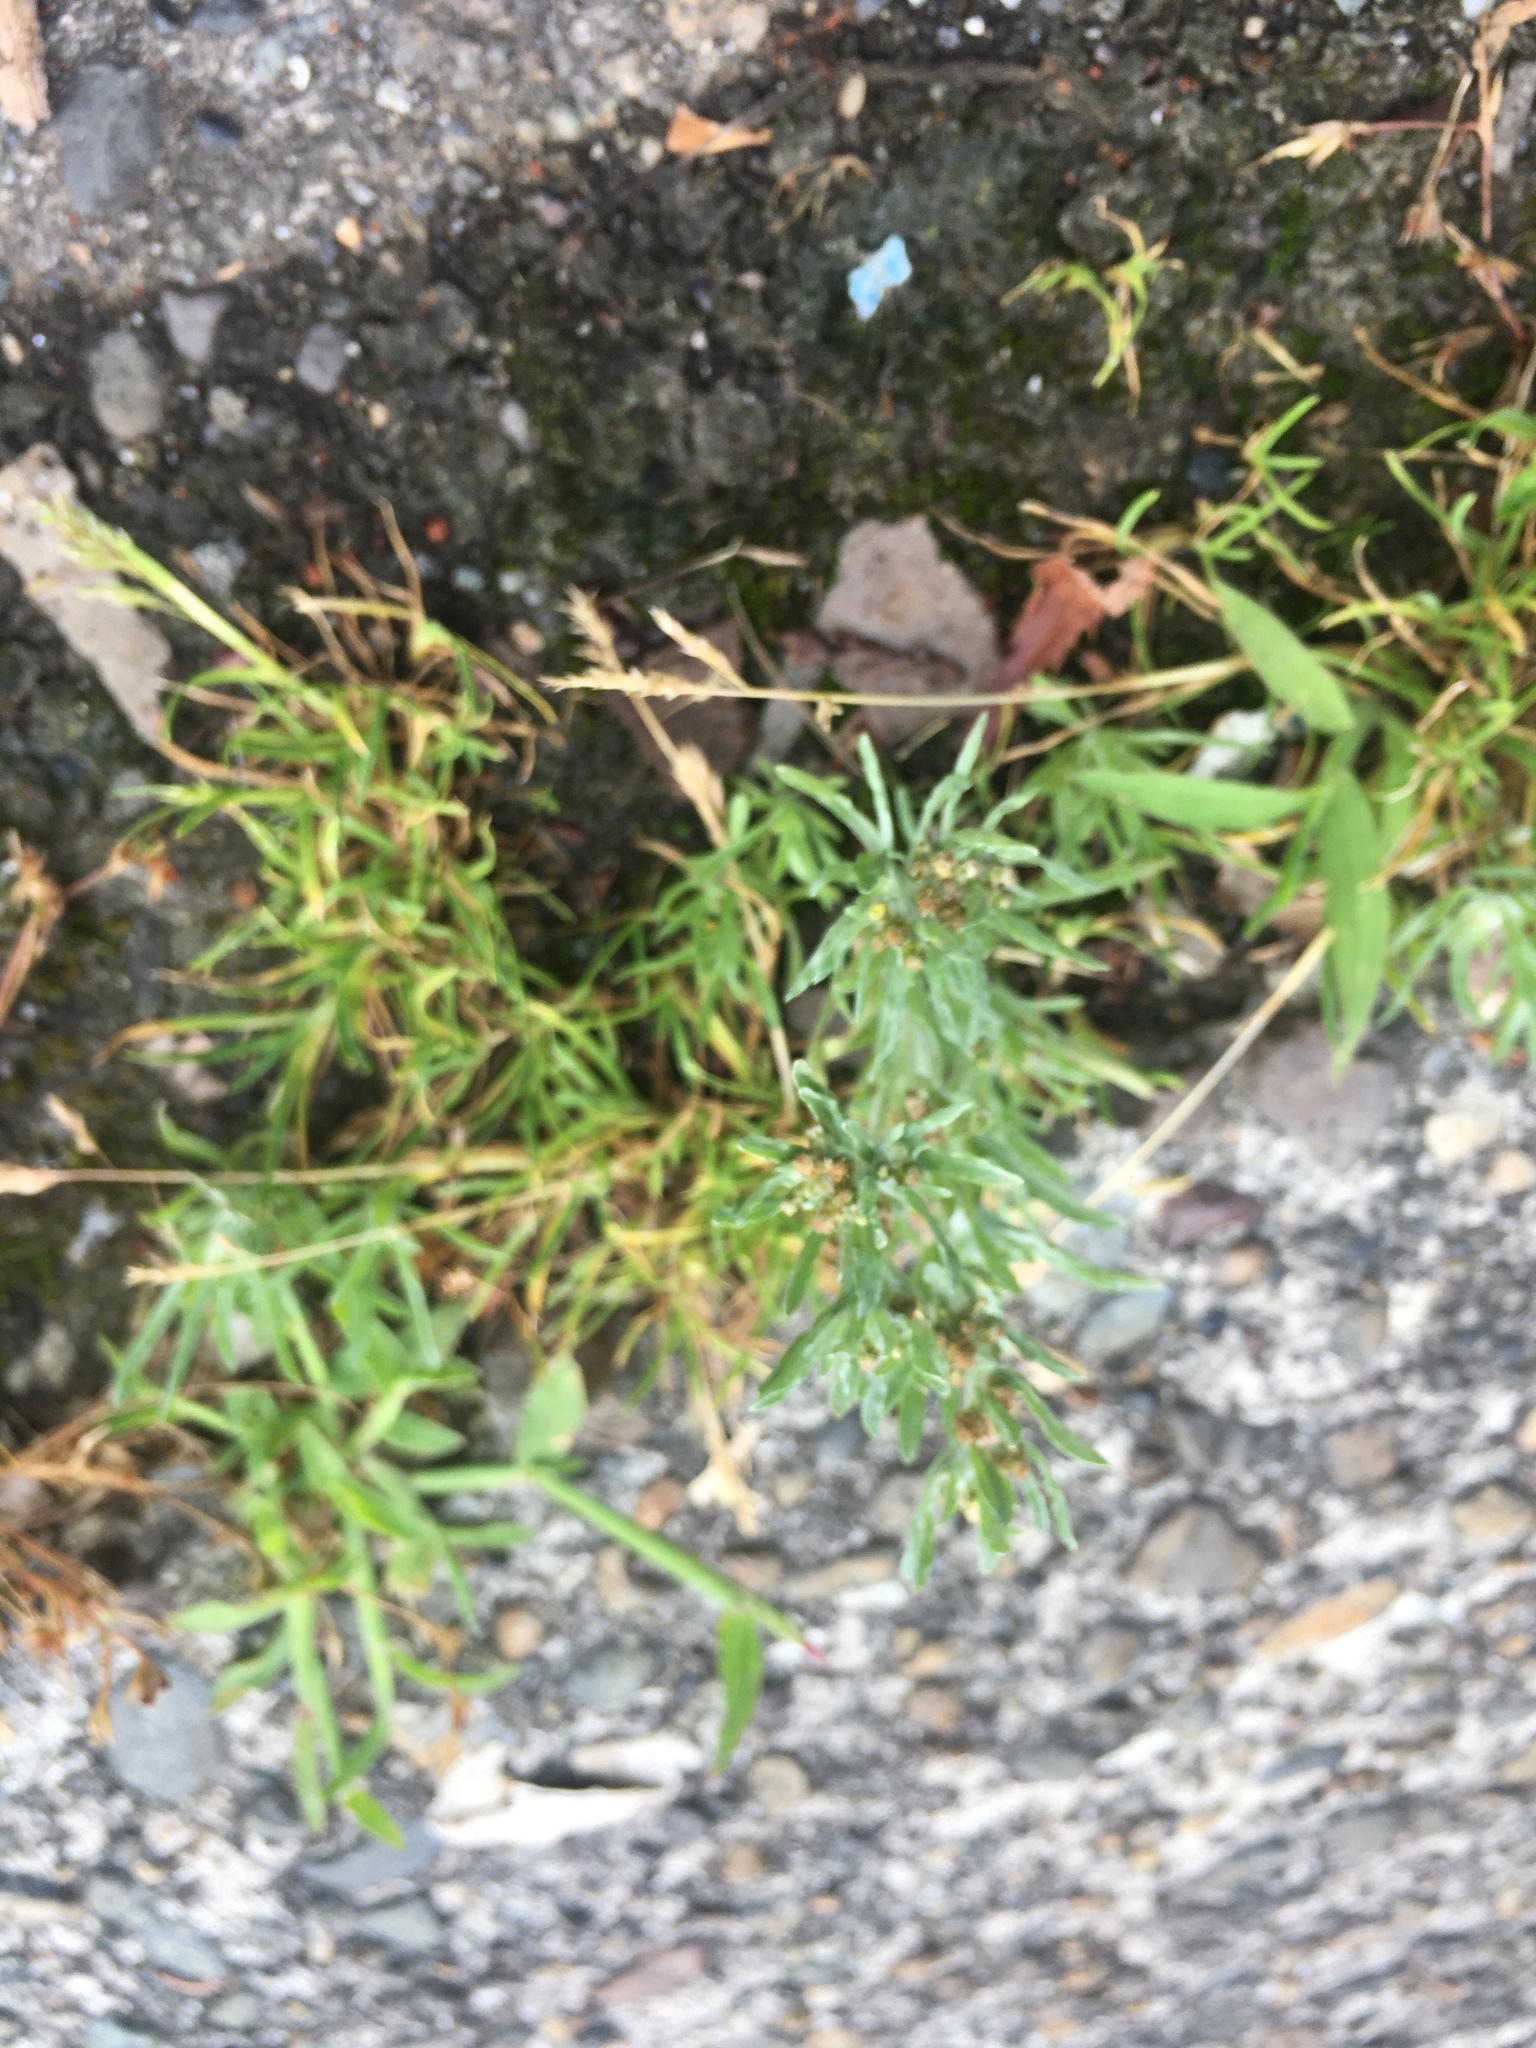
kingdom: Plantae
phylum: Tracheophyta
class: Magnoliopsida
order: Asterales
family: Asteraceae
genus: Gnaphalium
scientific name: Gnaphalium uliginosum
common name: Marsh cudweed
